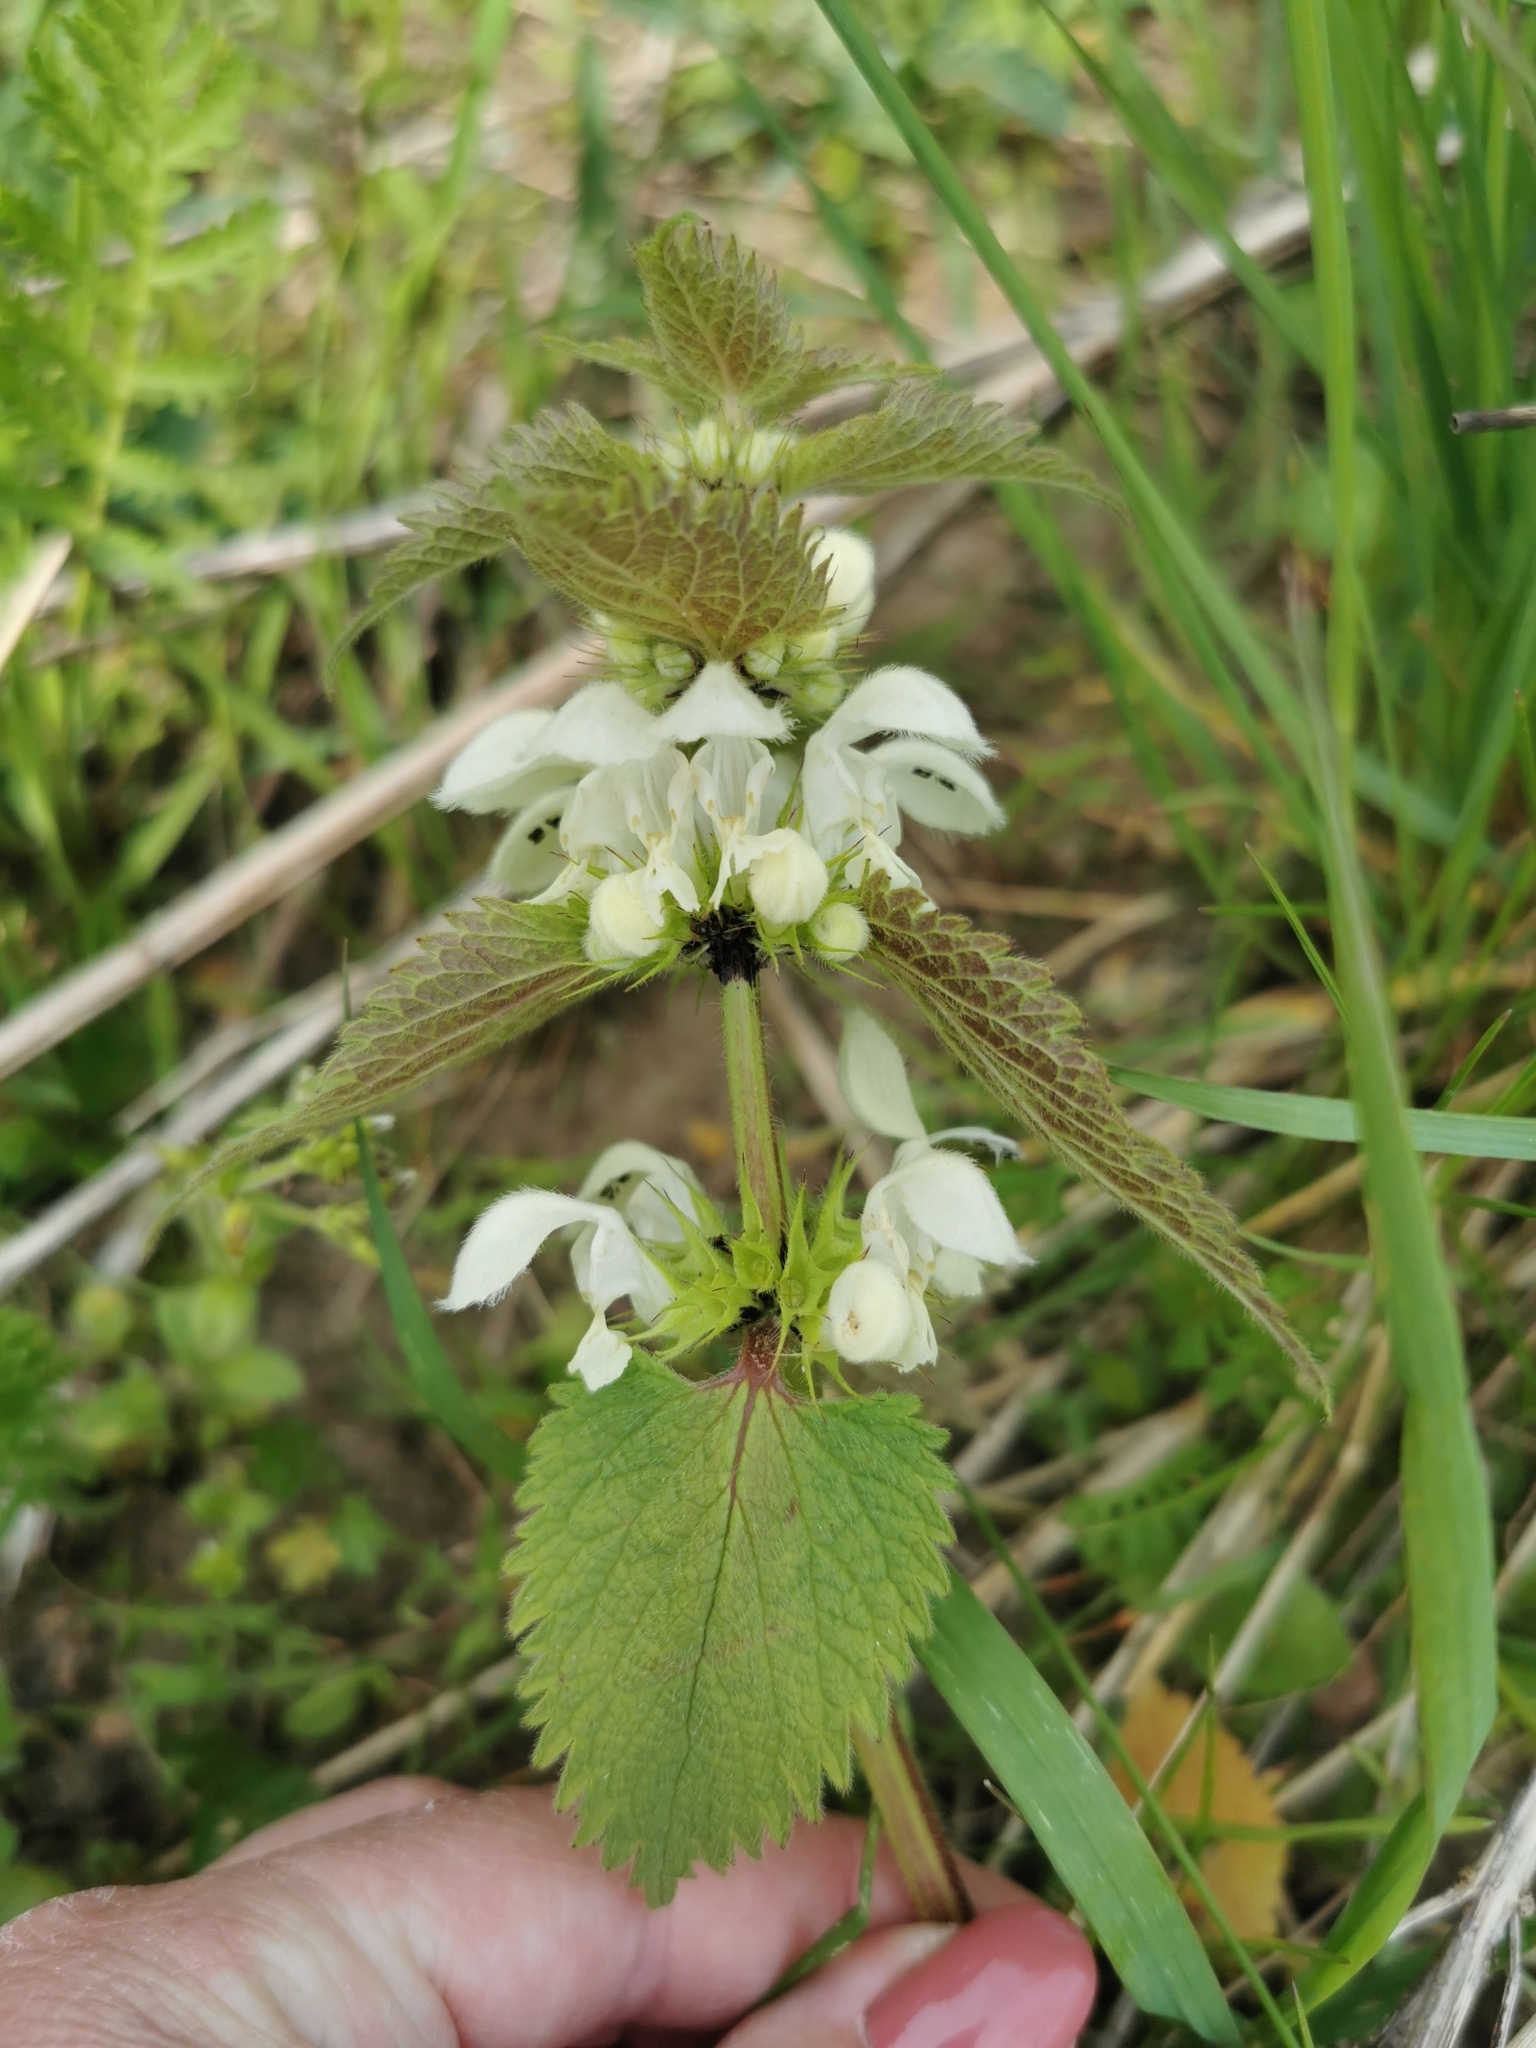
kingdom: Plantae
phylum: Tracheophyta
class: Magnoliopsida
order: Lamiales
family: Lamiaceae
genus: Lamium
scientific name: Lamium album
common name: White dead-nettle
